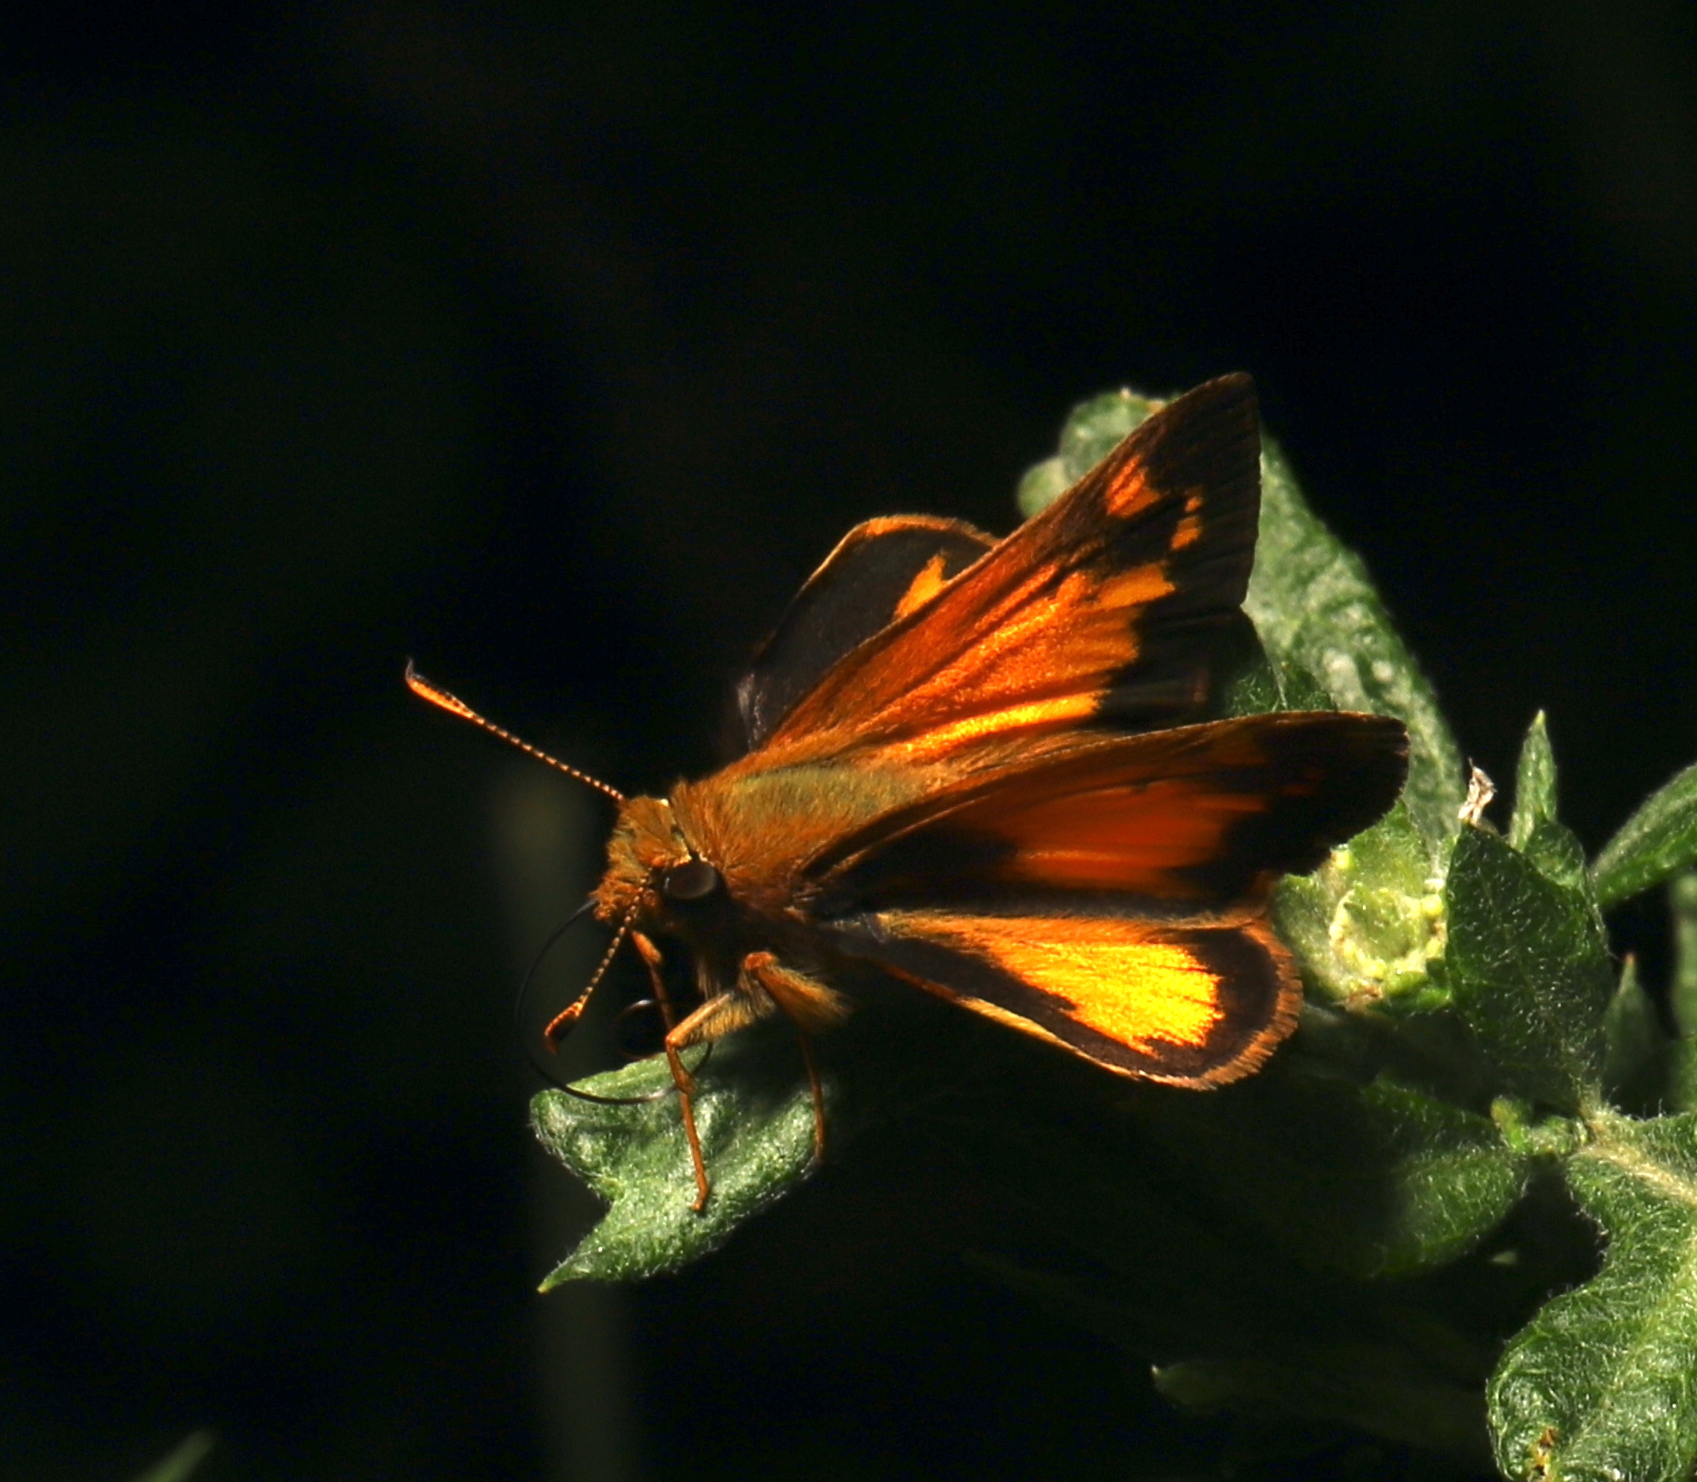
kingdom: Animalia
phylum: Arthropoda
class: Insecta
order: Lepidoptera
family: Hesperiidae
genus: Lon
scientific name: Lon zabulon
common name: Zabulon skipper
